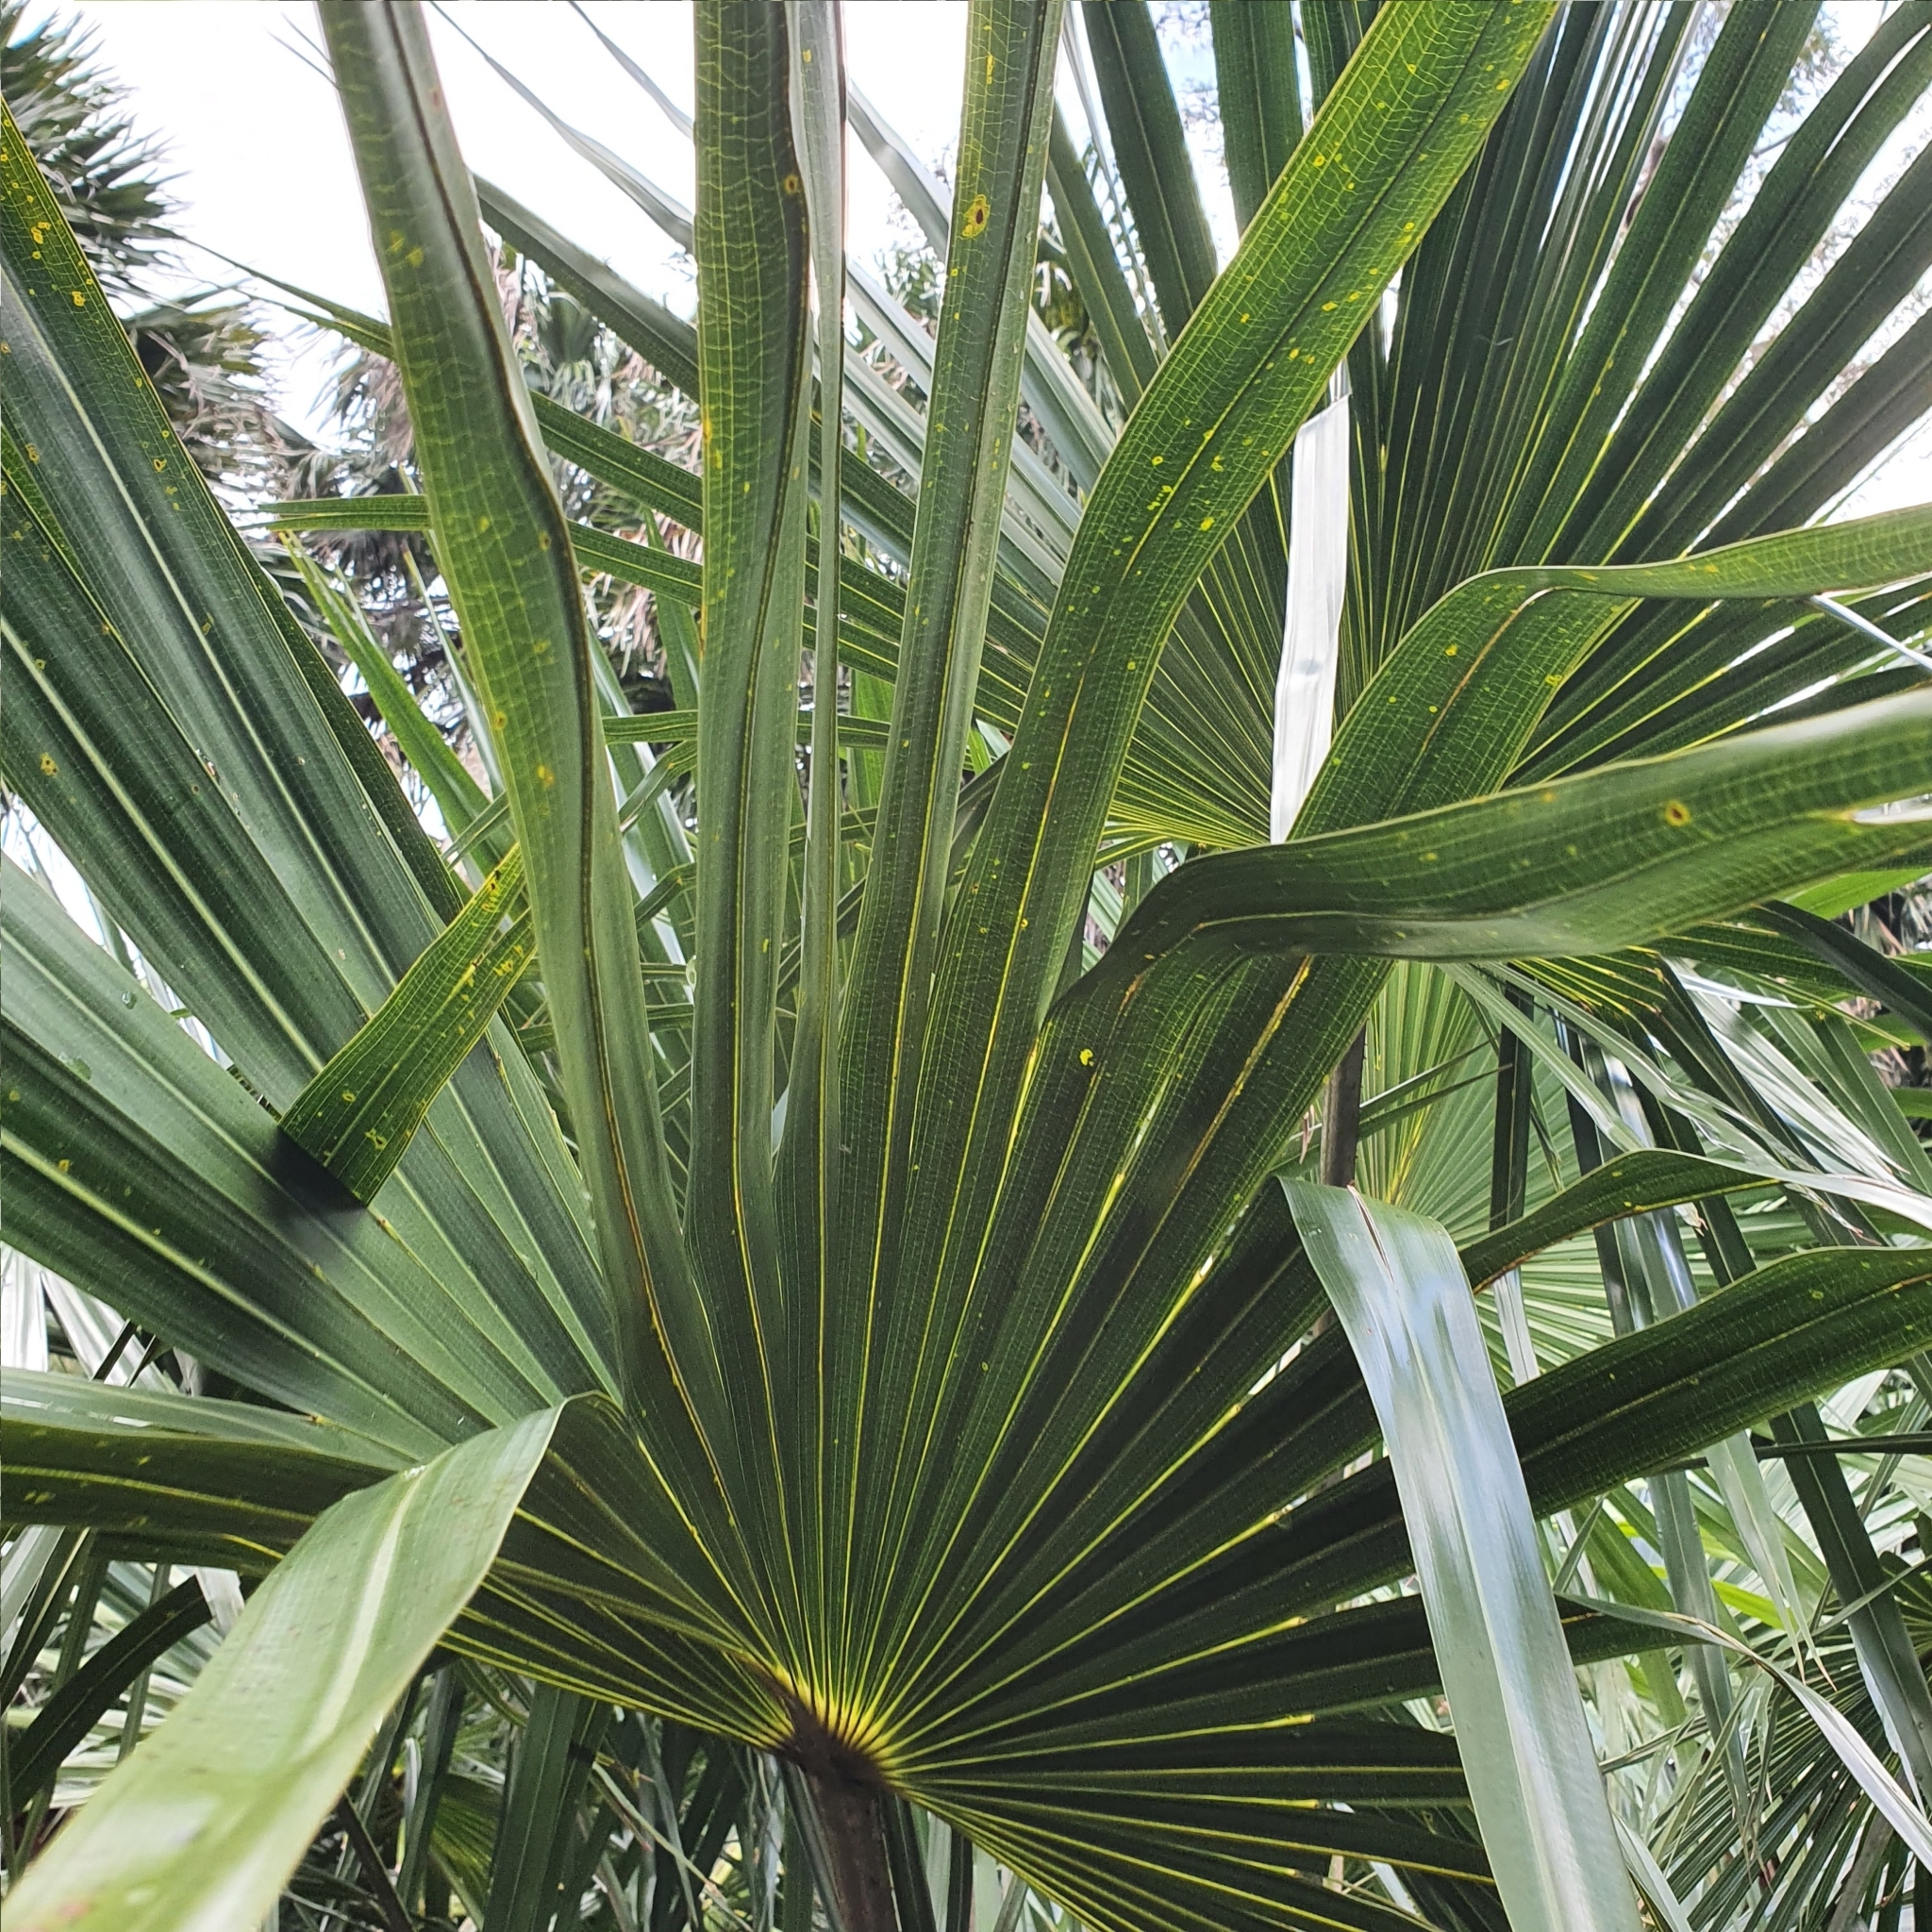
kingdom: Plantae
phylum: Tracheophyta
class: Liliopsida
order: Arecales
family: Arecaceae
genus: Livistona
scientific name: Livistona australis
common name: Cabbage fan palm
